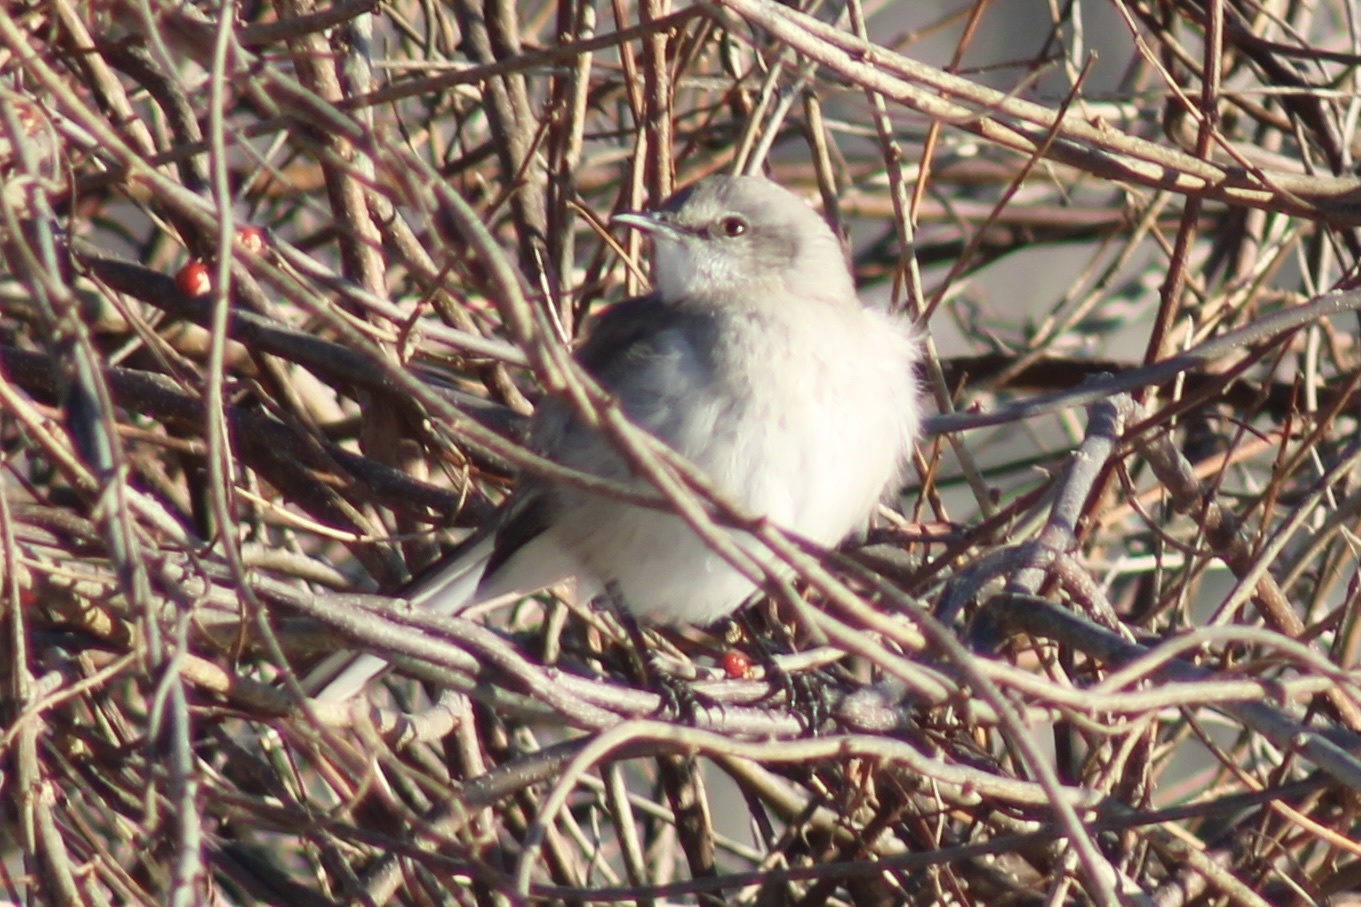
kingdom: Animalia
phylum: Chordata
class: Aves
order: Passeriformes
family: Mimidae
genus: Mimus
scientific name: Mimus polyglottos
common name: Northern mockingbird
